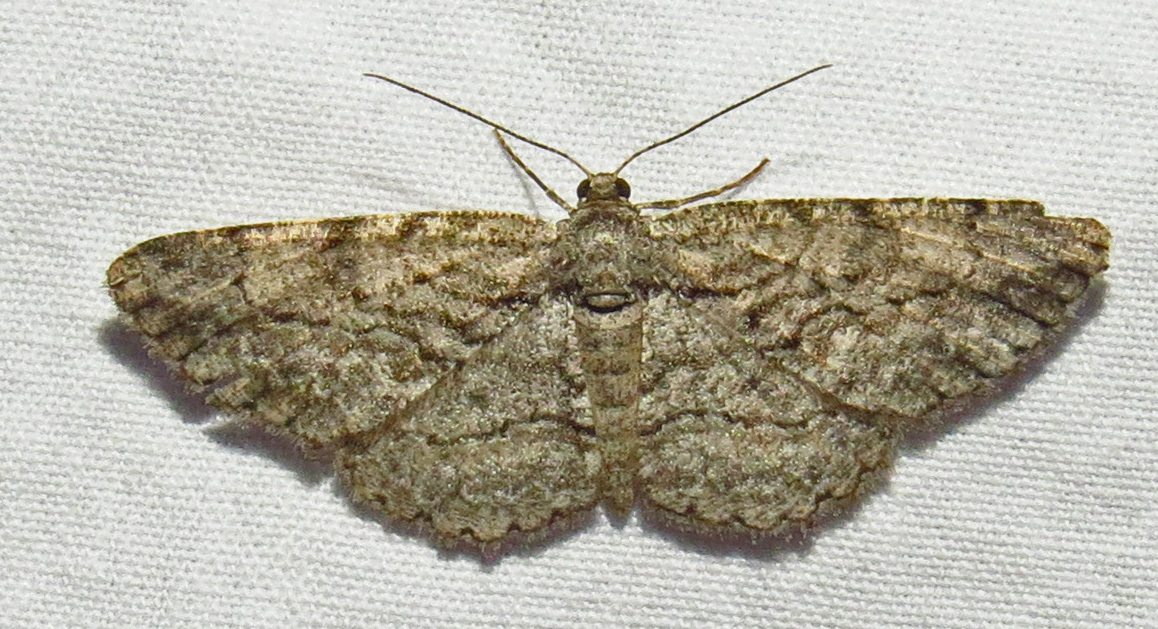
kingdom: Animalia
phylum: Arthropoda
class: Insecta
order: Lepidoptera
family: Geometridae
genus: Anavitrinella
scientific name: Anavitrinella pampinaria
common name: Common gray
